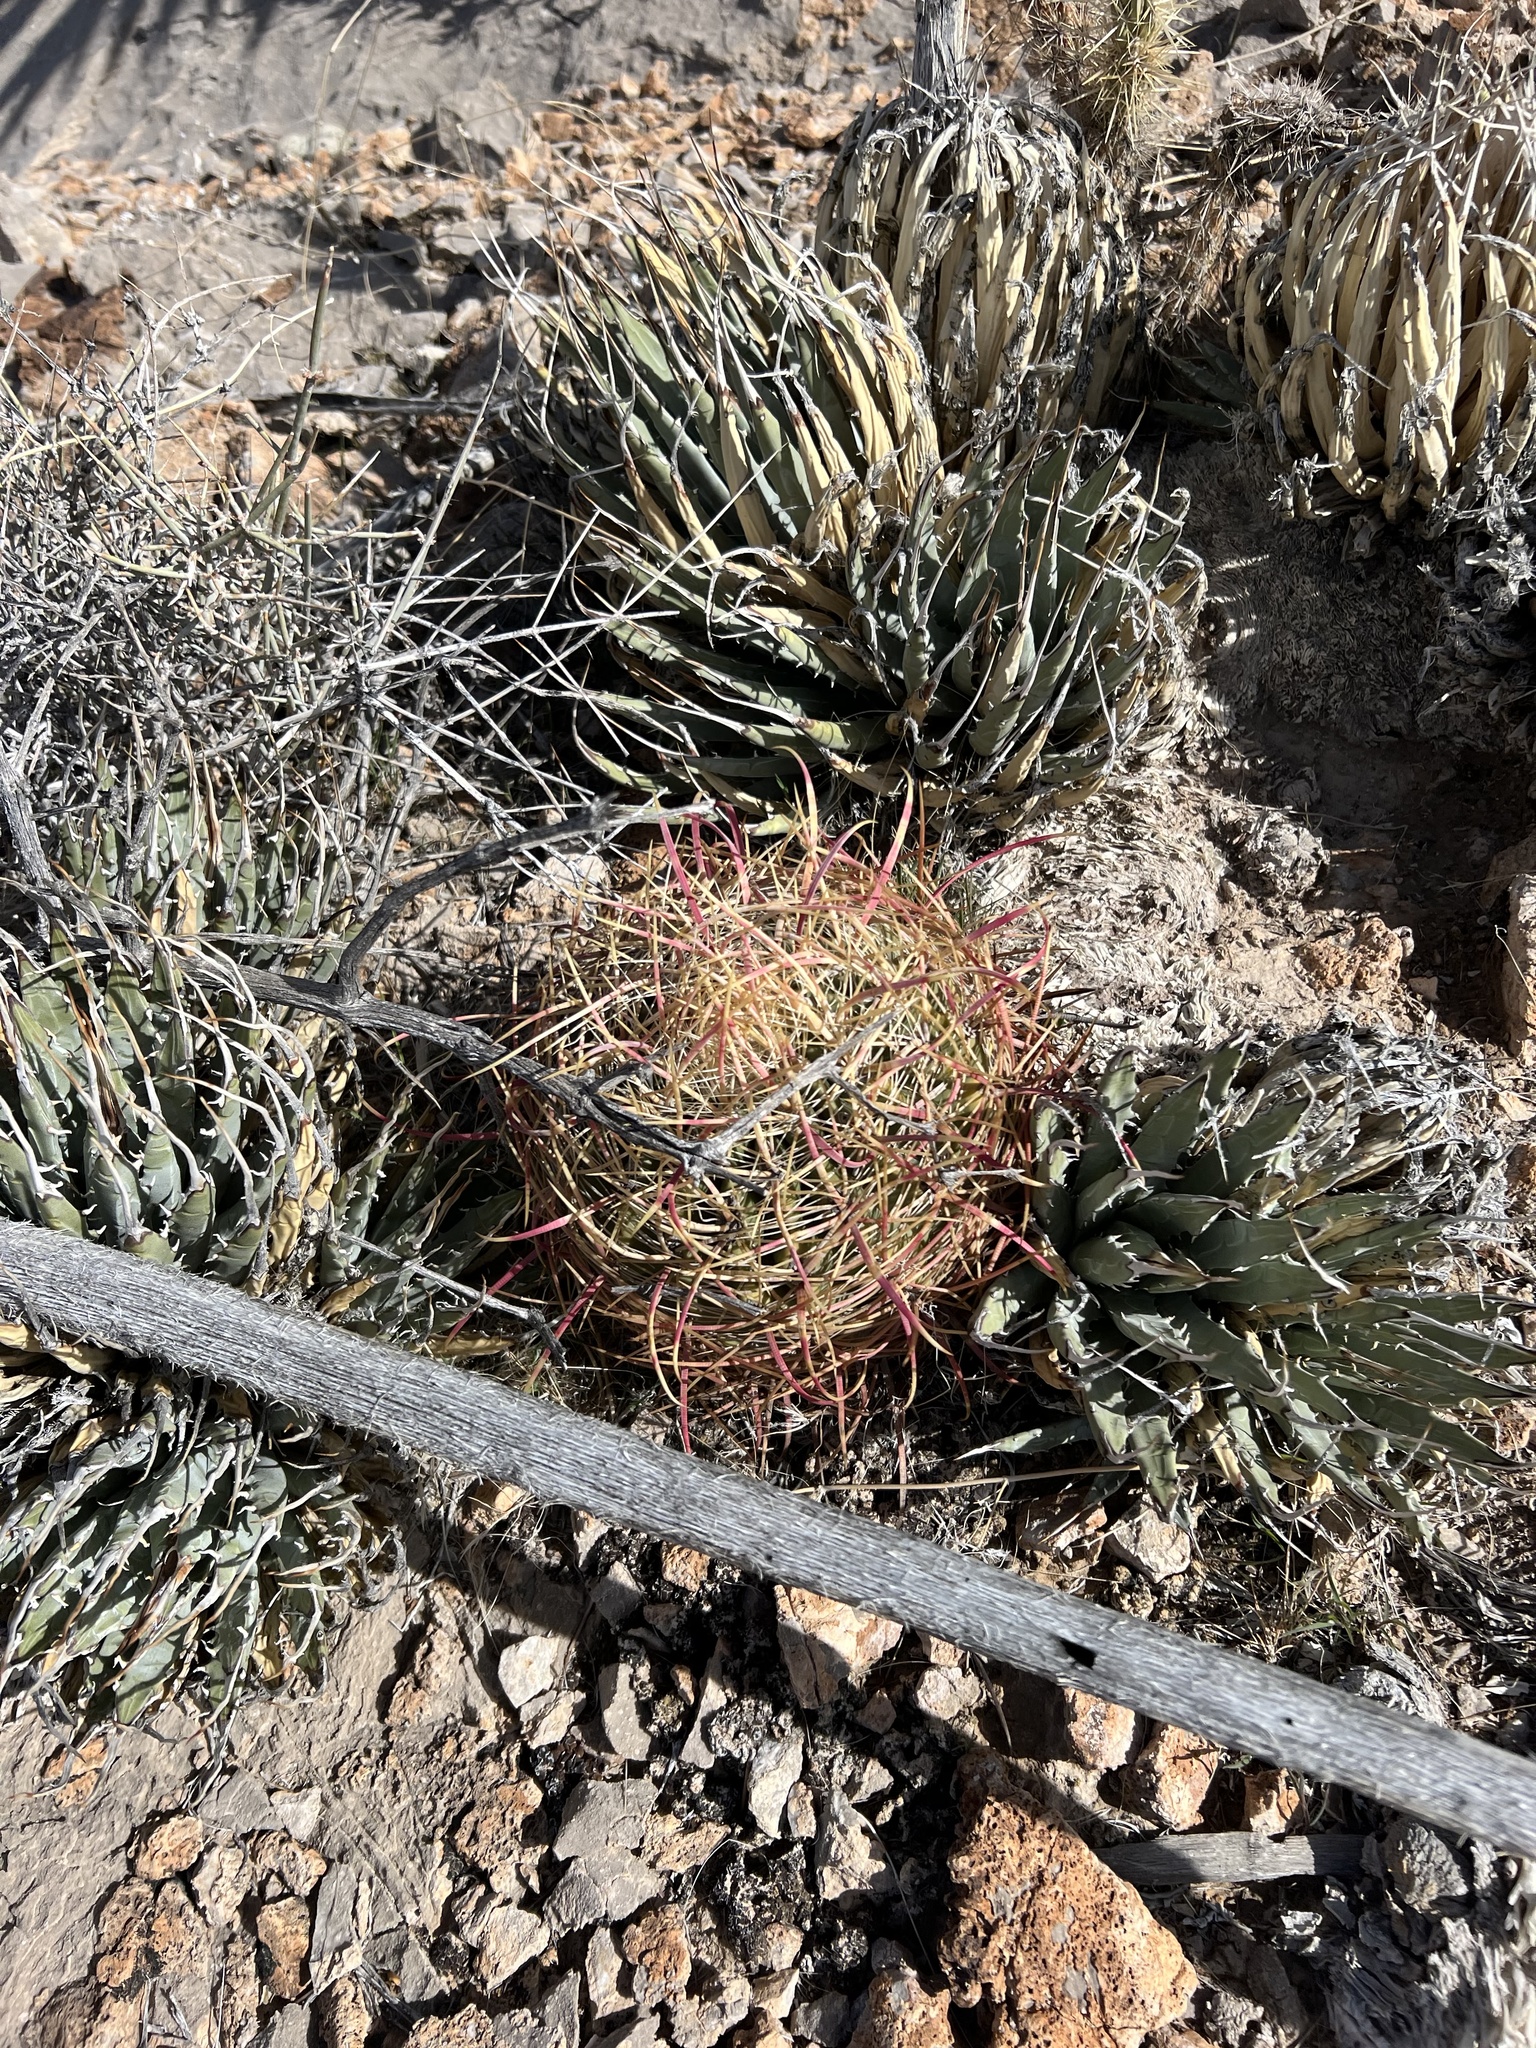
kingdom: Plantae
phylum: Tracheophyta
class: Magnoliopsida
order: Caryophyllales
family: Cactaceae
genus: Ferocactus
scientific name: Ferocactus cylindraceus
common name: California barrel cactus
